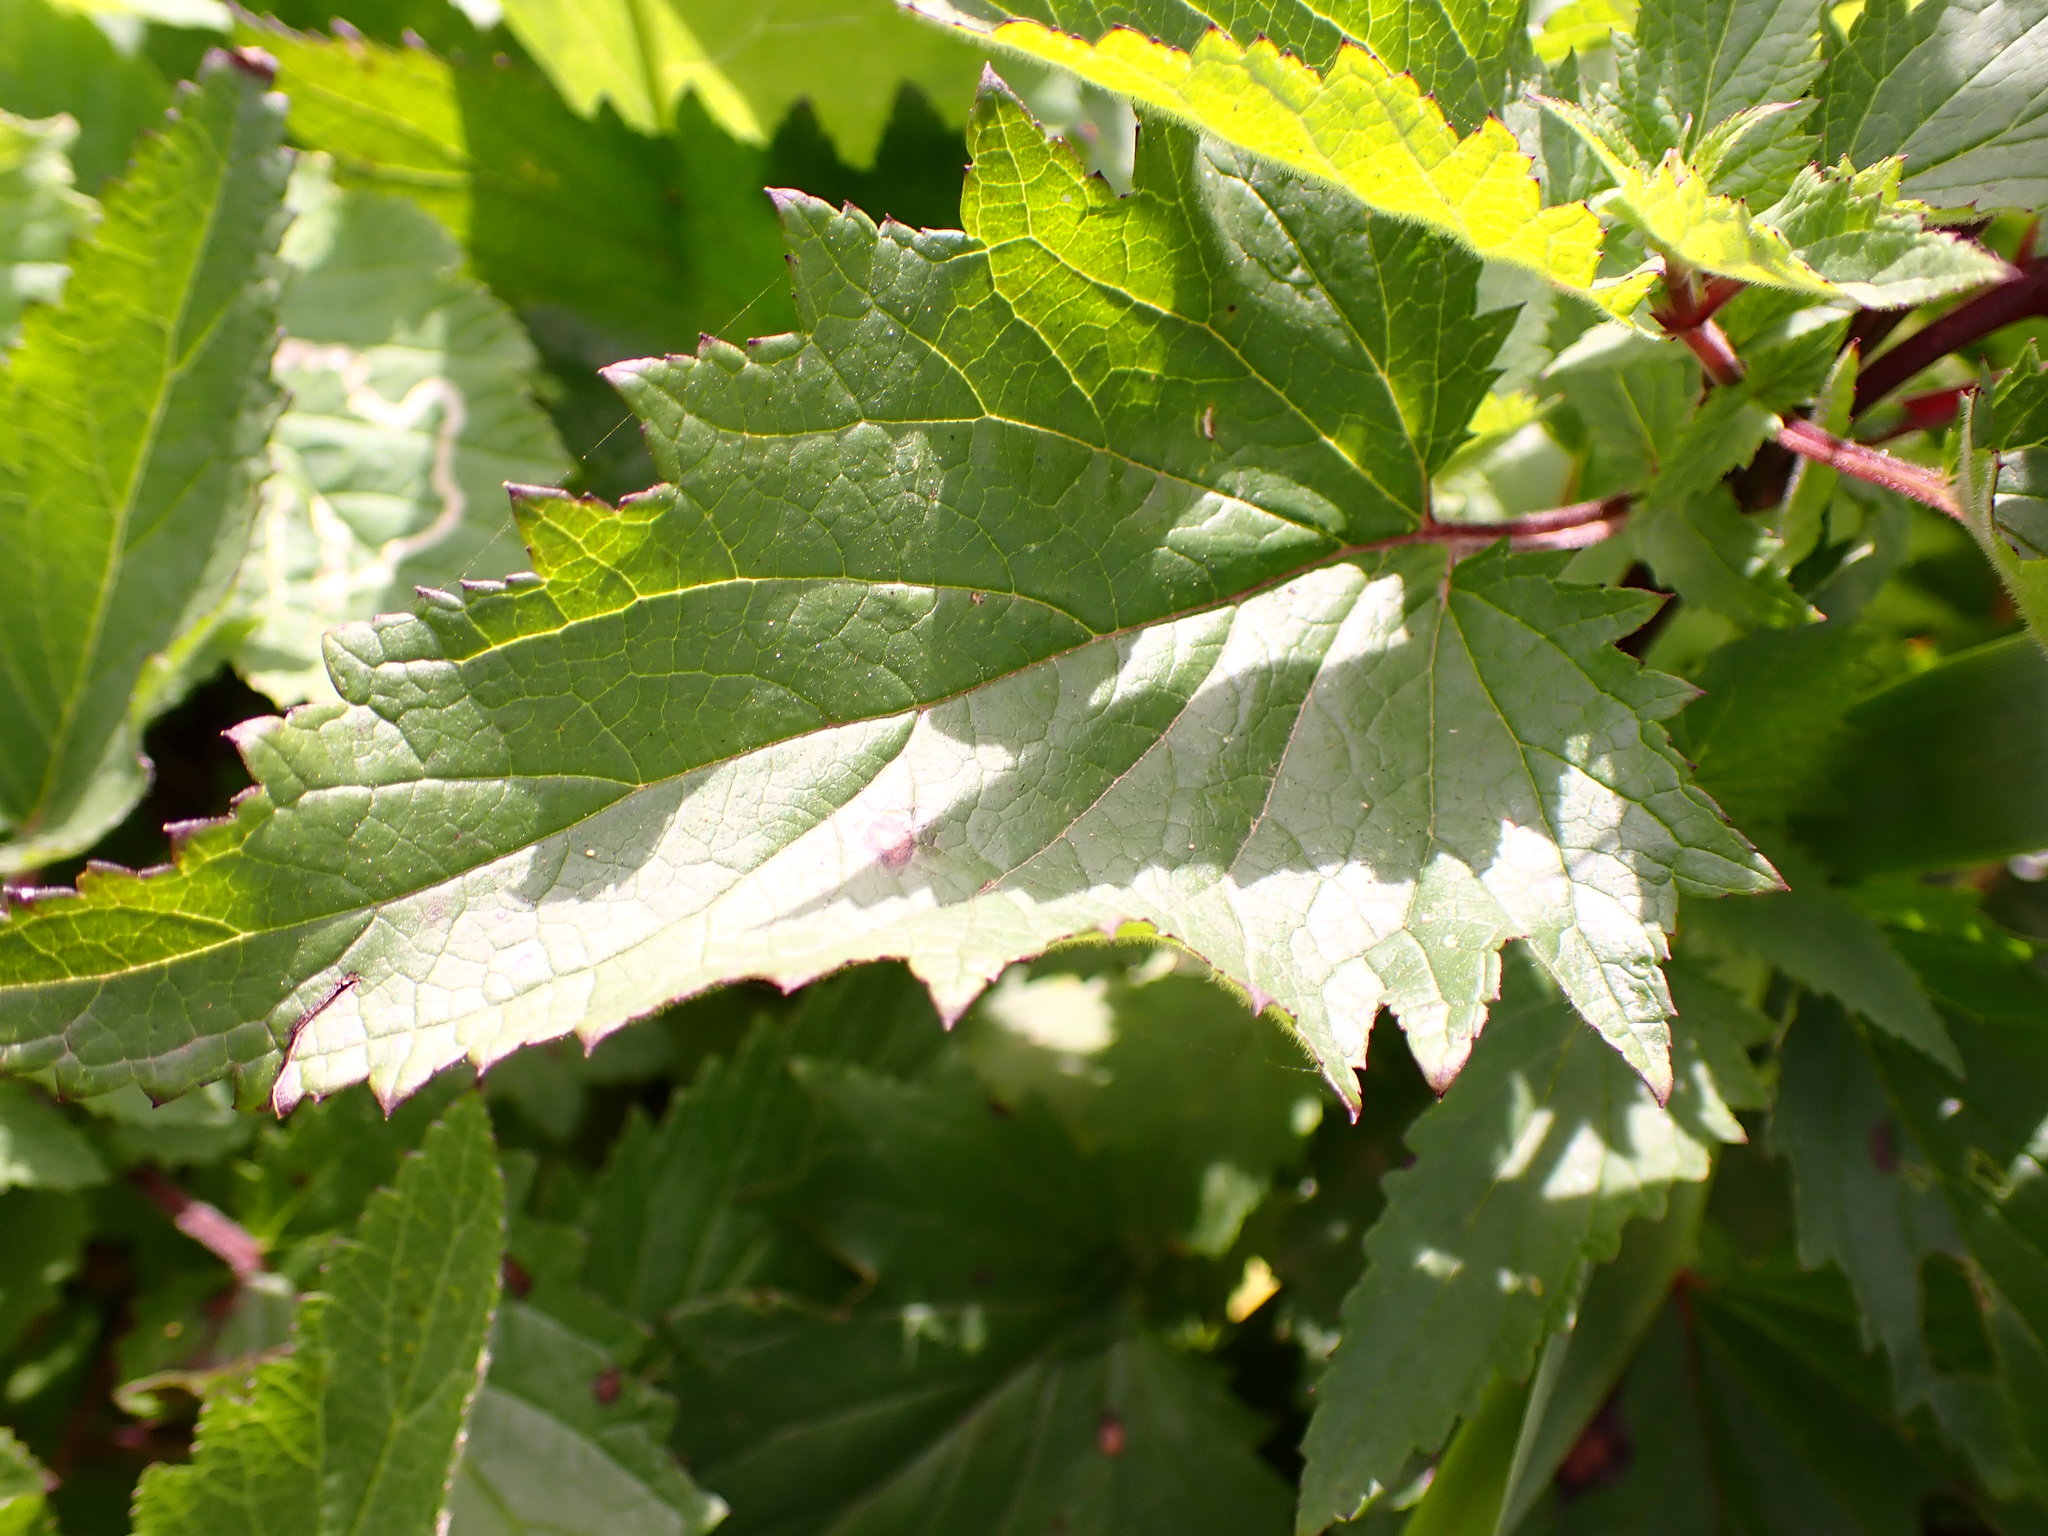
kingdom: Plantae
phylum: Tracheophyta
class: Magnoliopsida
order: Lamiales
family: Scrophulariaceae
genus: Scrophularia
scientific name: Scrophularia californica
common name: California figwort
